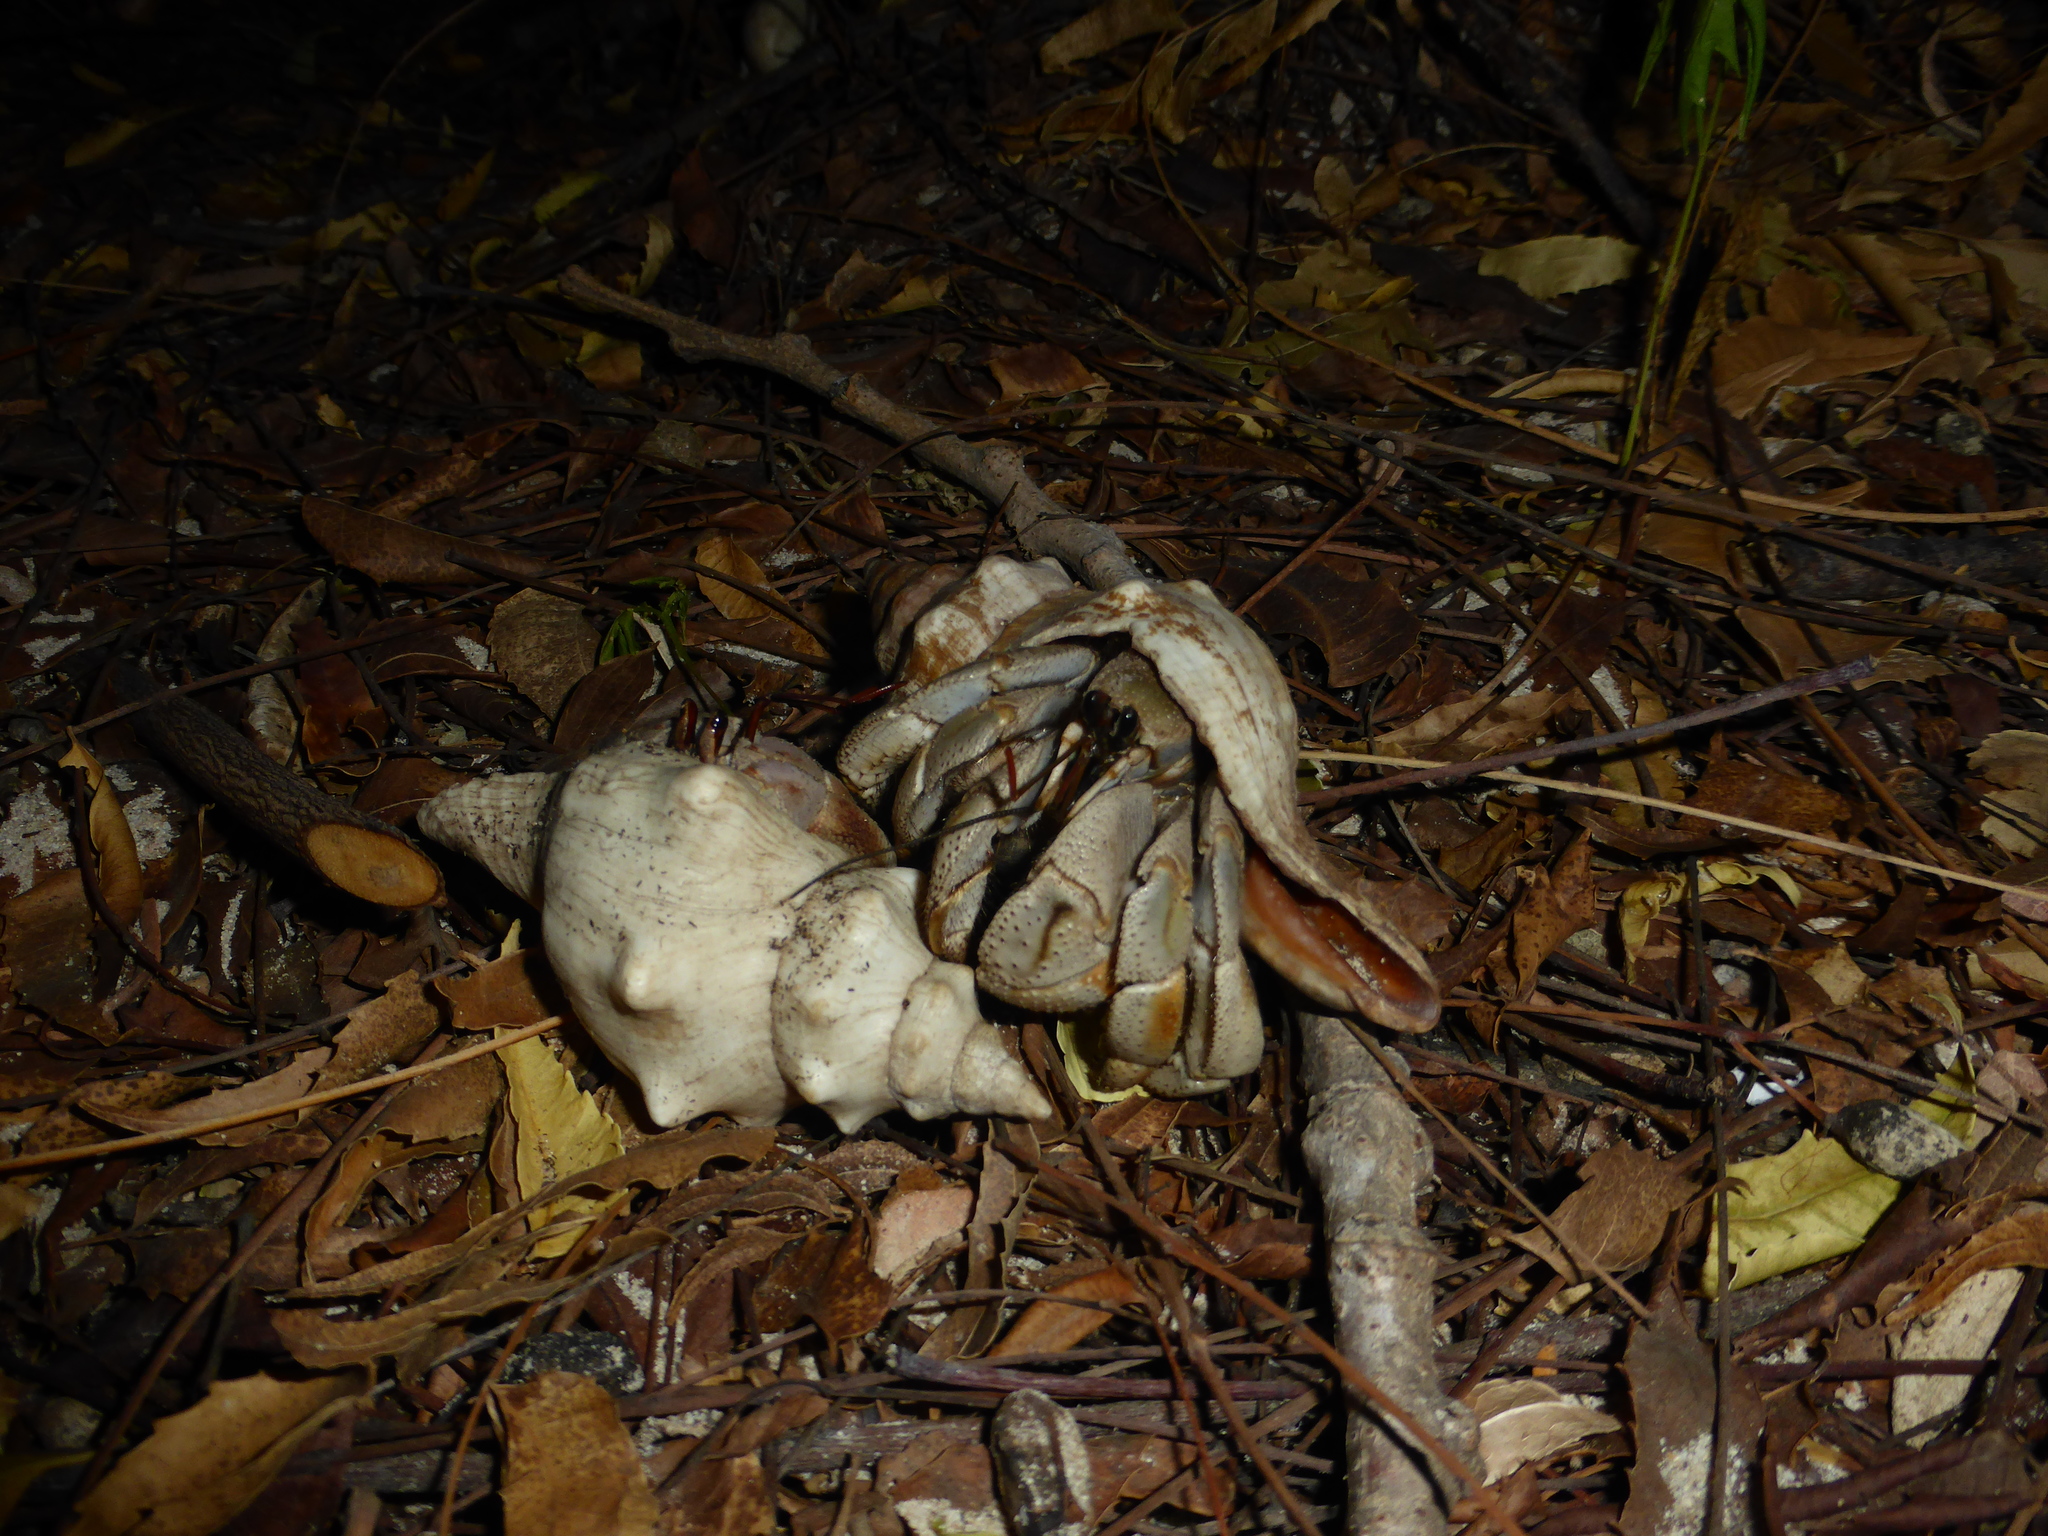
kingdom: Animalia
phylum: Arthropoda
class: Malacostraca
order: Decapoda
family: Coenobitidae
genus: Coenobita
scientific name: Coenobita violascens
